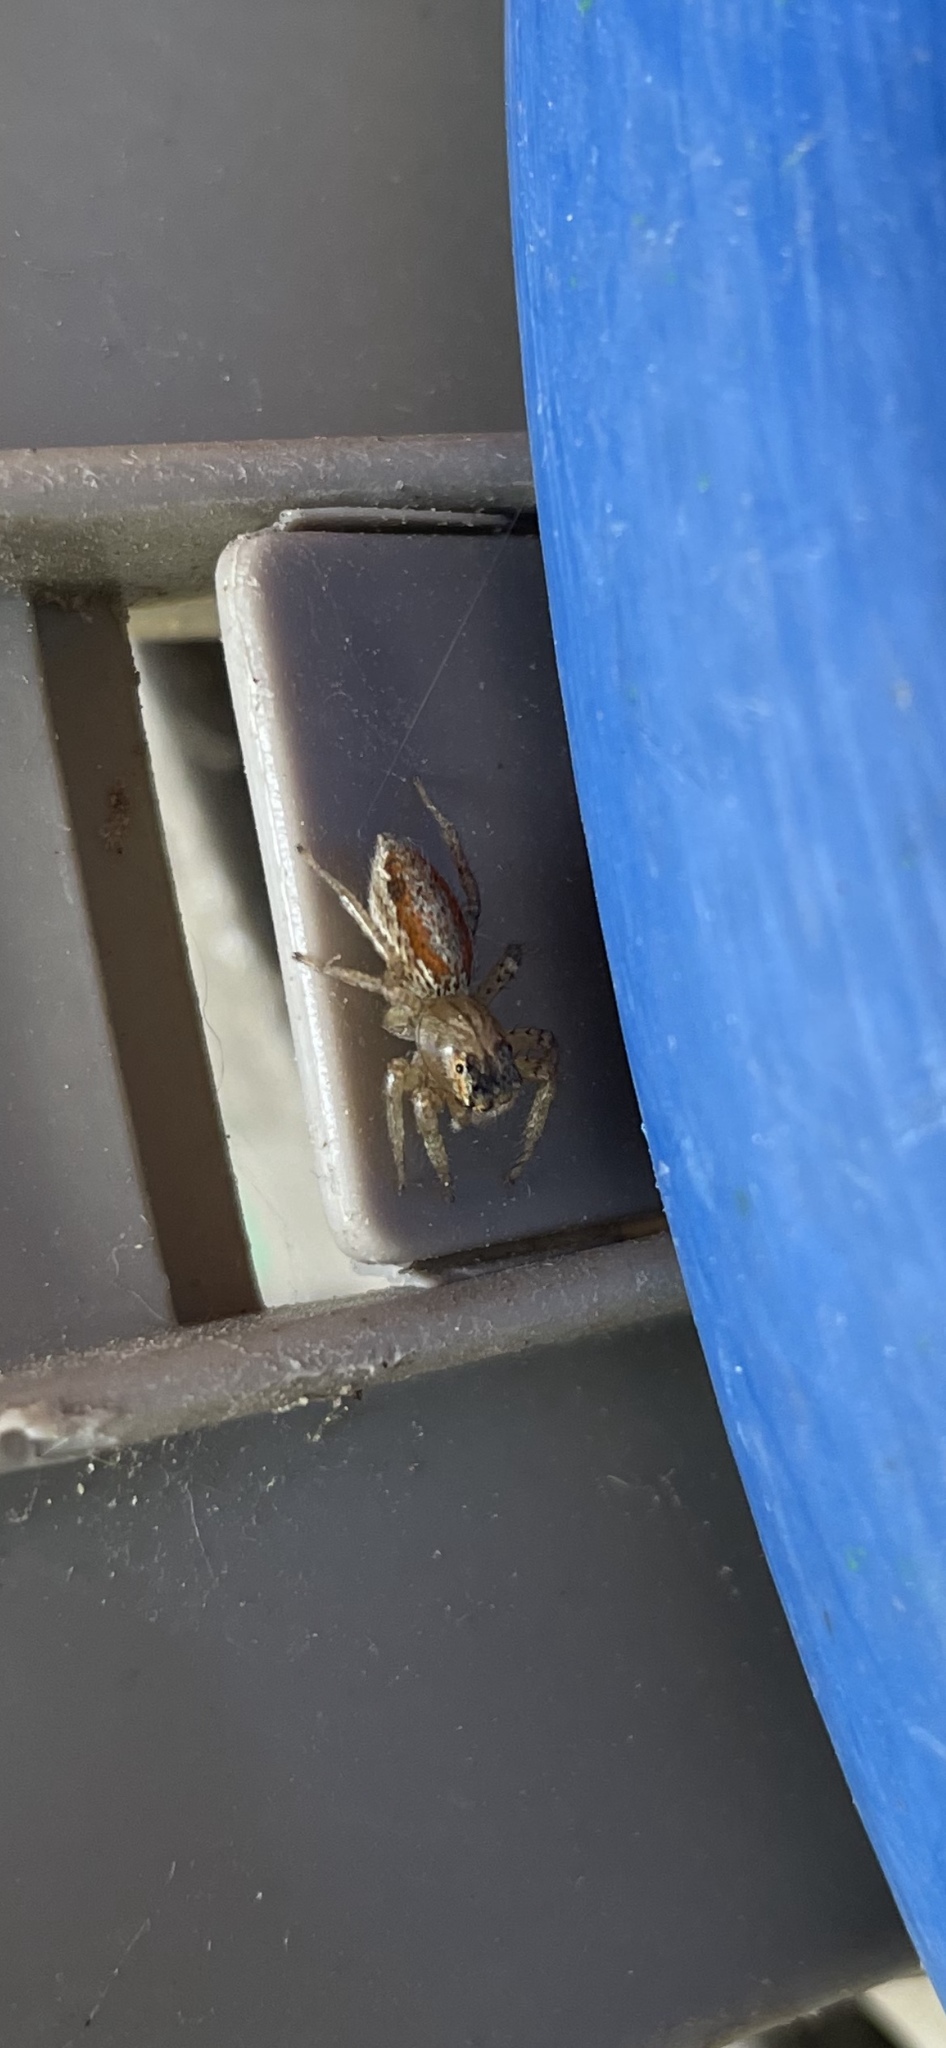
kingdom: Animalia
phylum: Arthropoda
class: Arachnida
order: Araneae
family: Salticidae
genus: Maevia
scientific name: Maevia inclemens
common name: Dimorphic jumper
